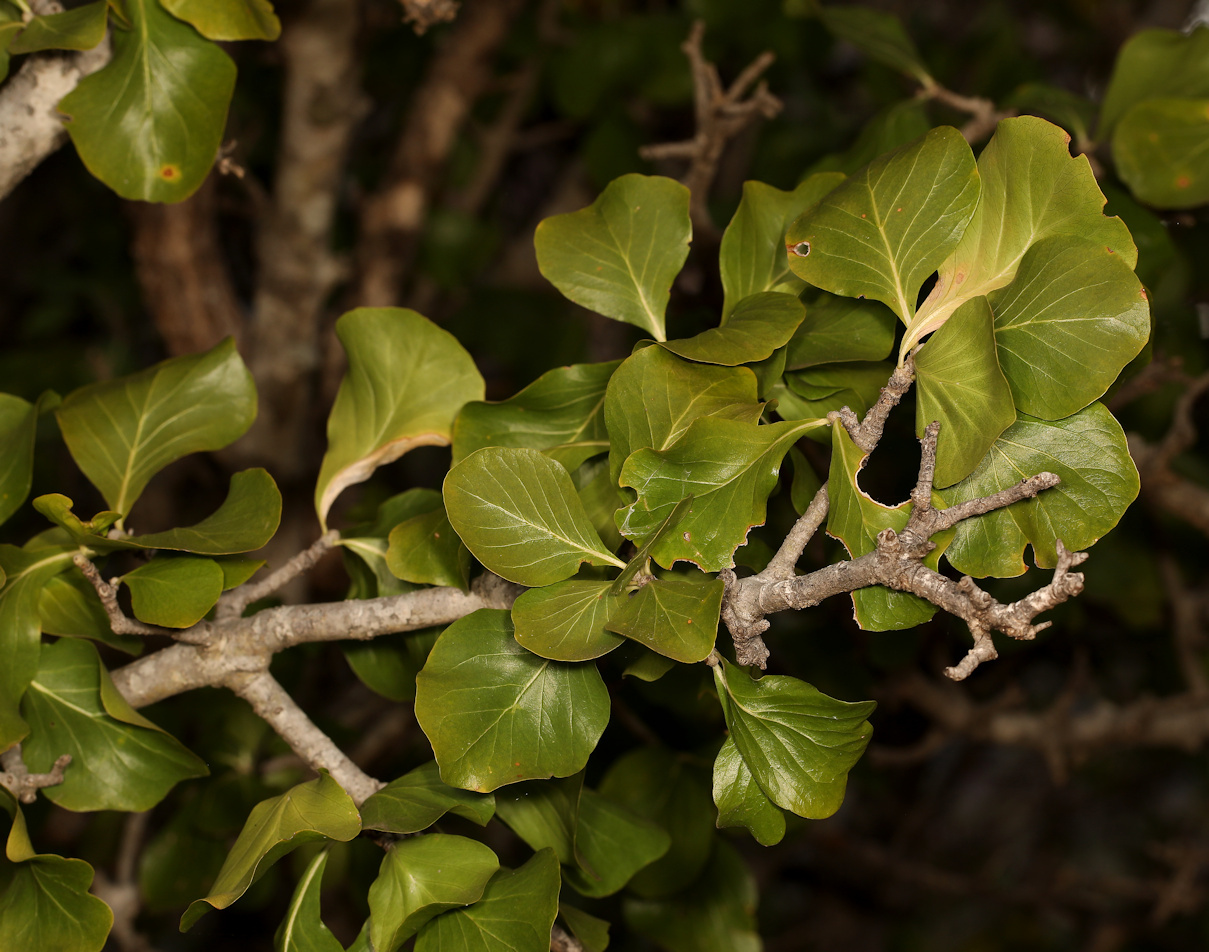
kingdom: Plantae
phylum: Tracheophyta
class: Magnoliopsida
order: Gentianales
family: Rubiaceae
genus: Gardenia
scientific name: Gardenia volkensii
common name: Common gardenia
